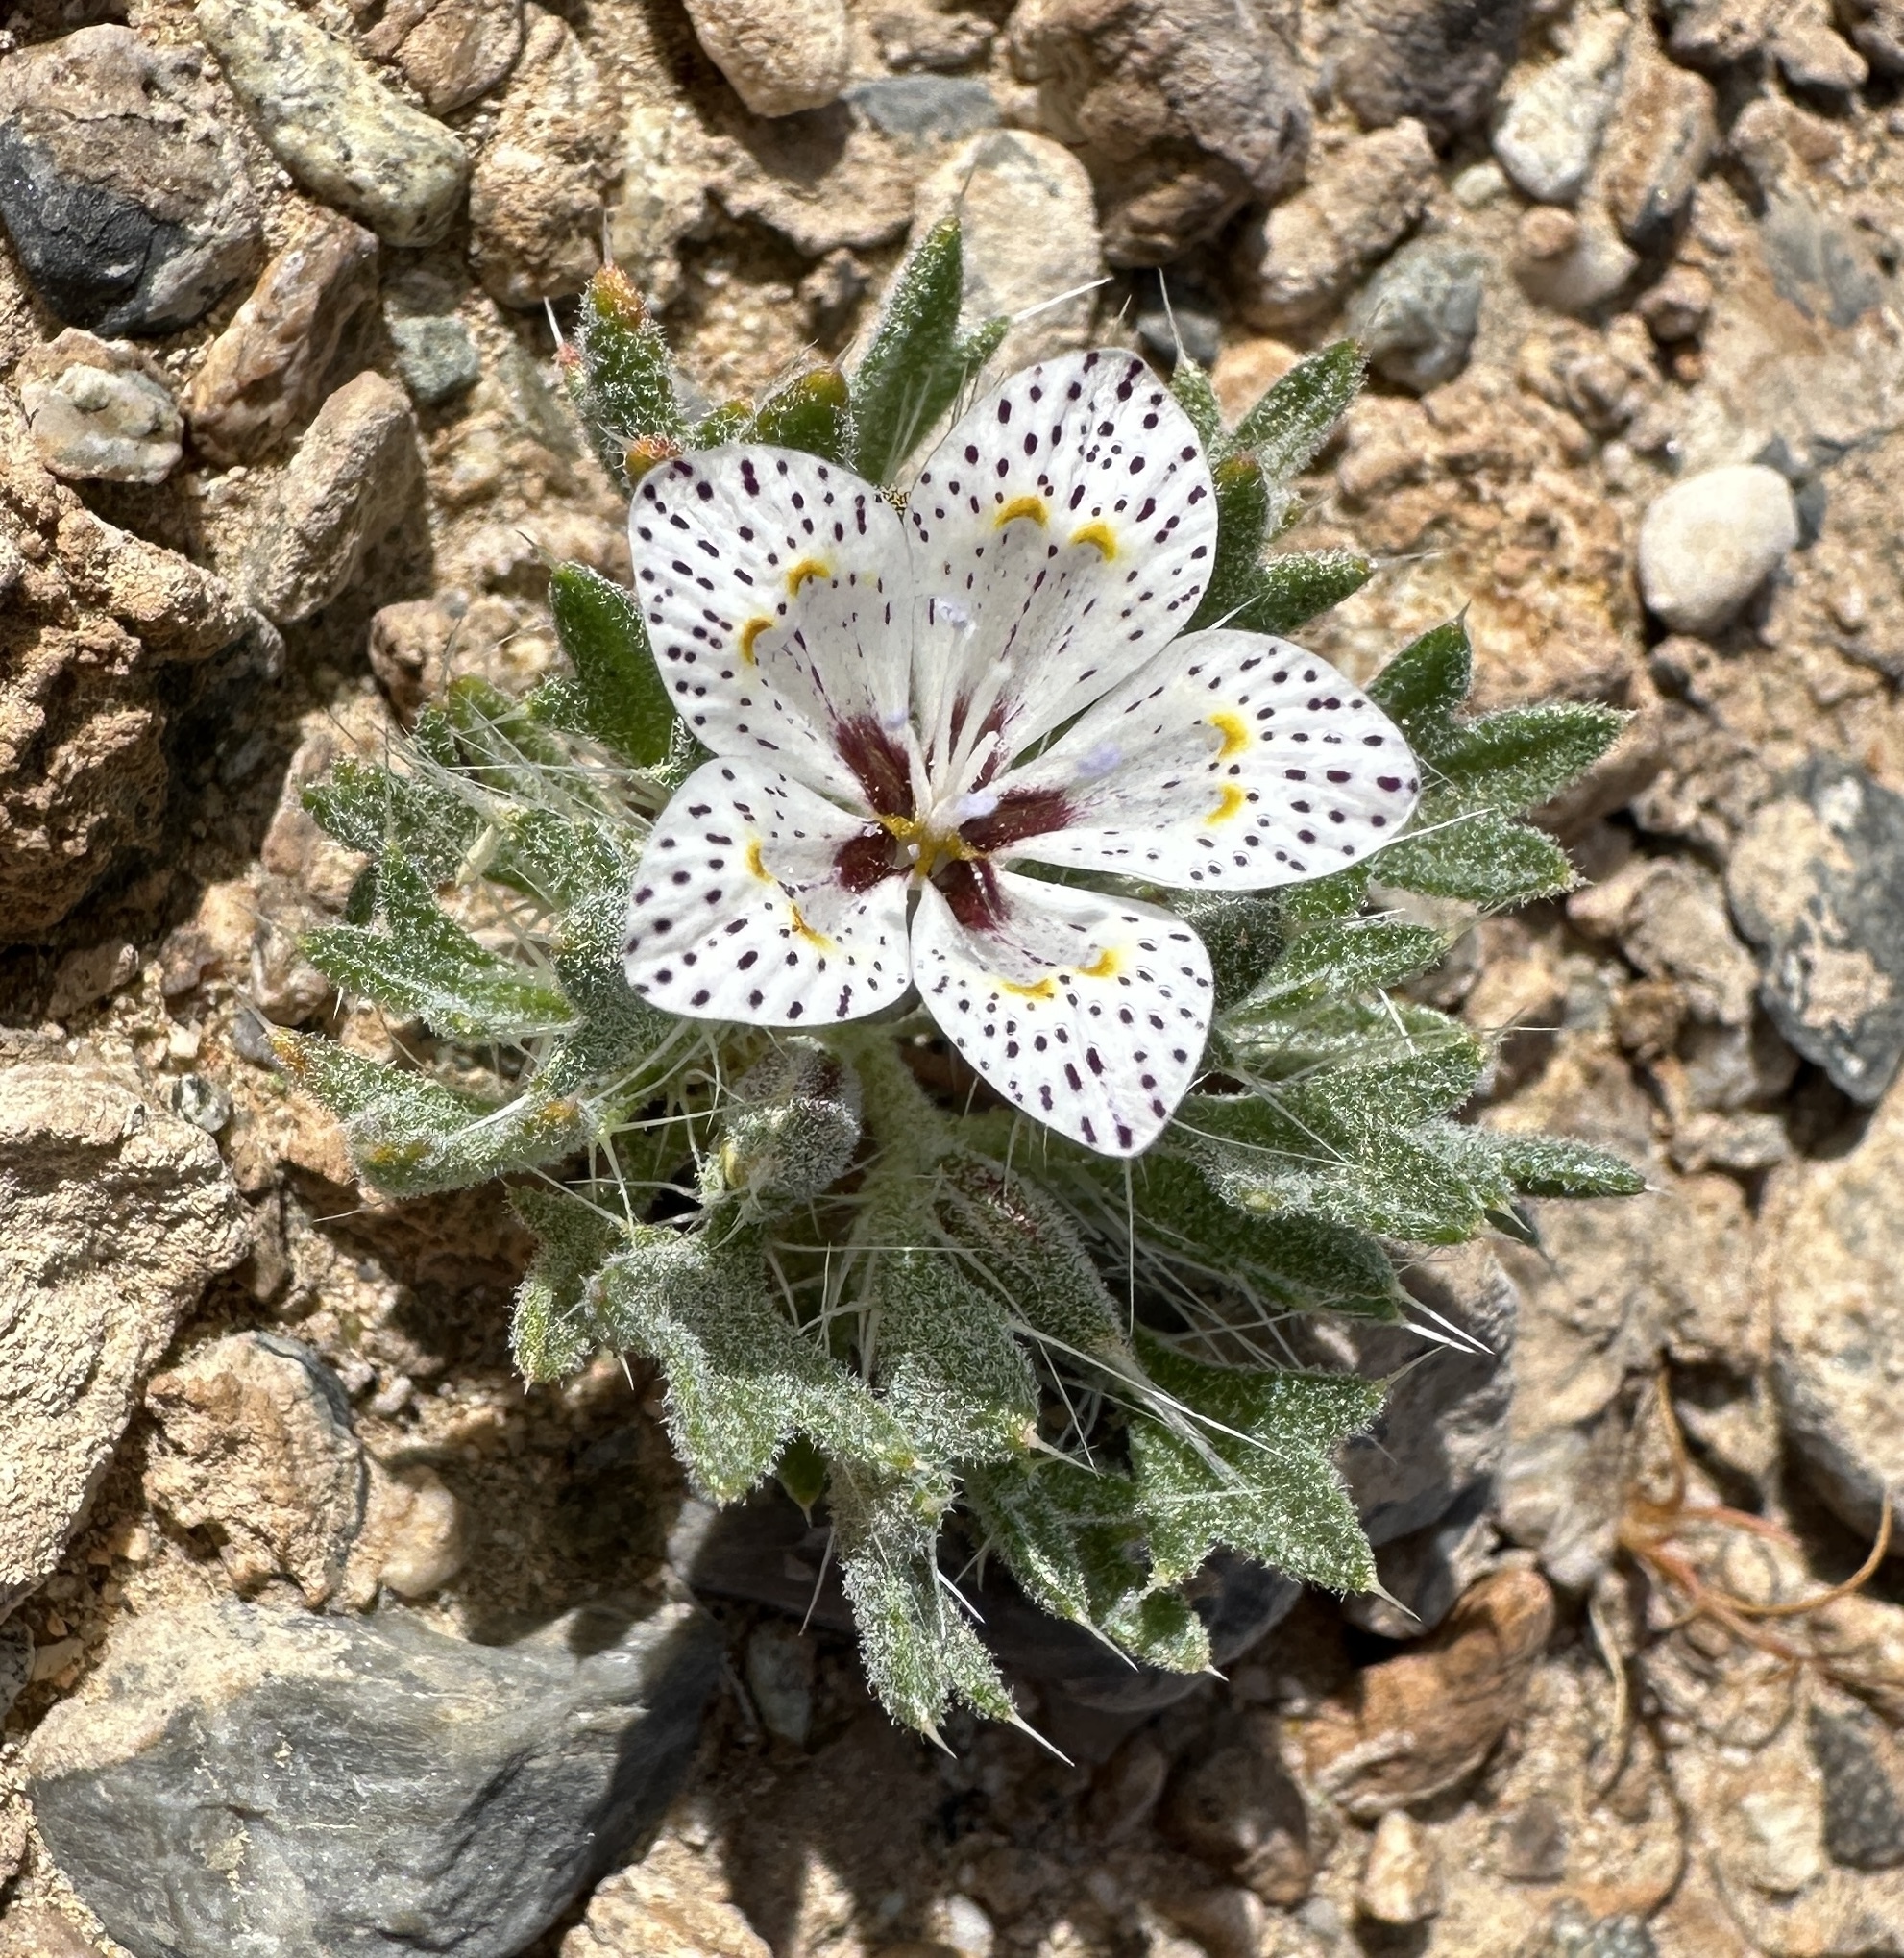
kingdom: Plantae
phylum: Tracheophyta
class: Magnoliopsida
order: Ericales
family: Polemoniaceae
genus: Langloisia
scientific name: Langloisia setosissima
